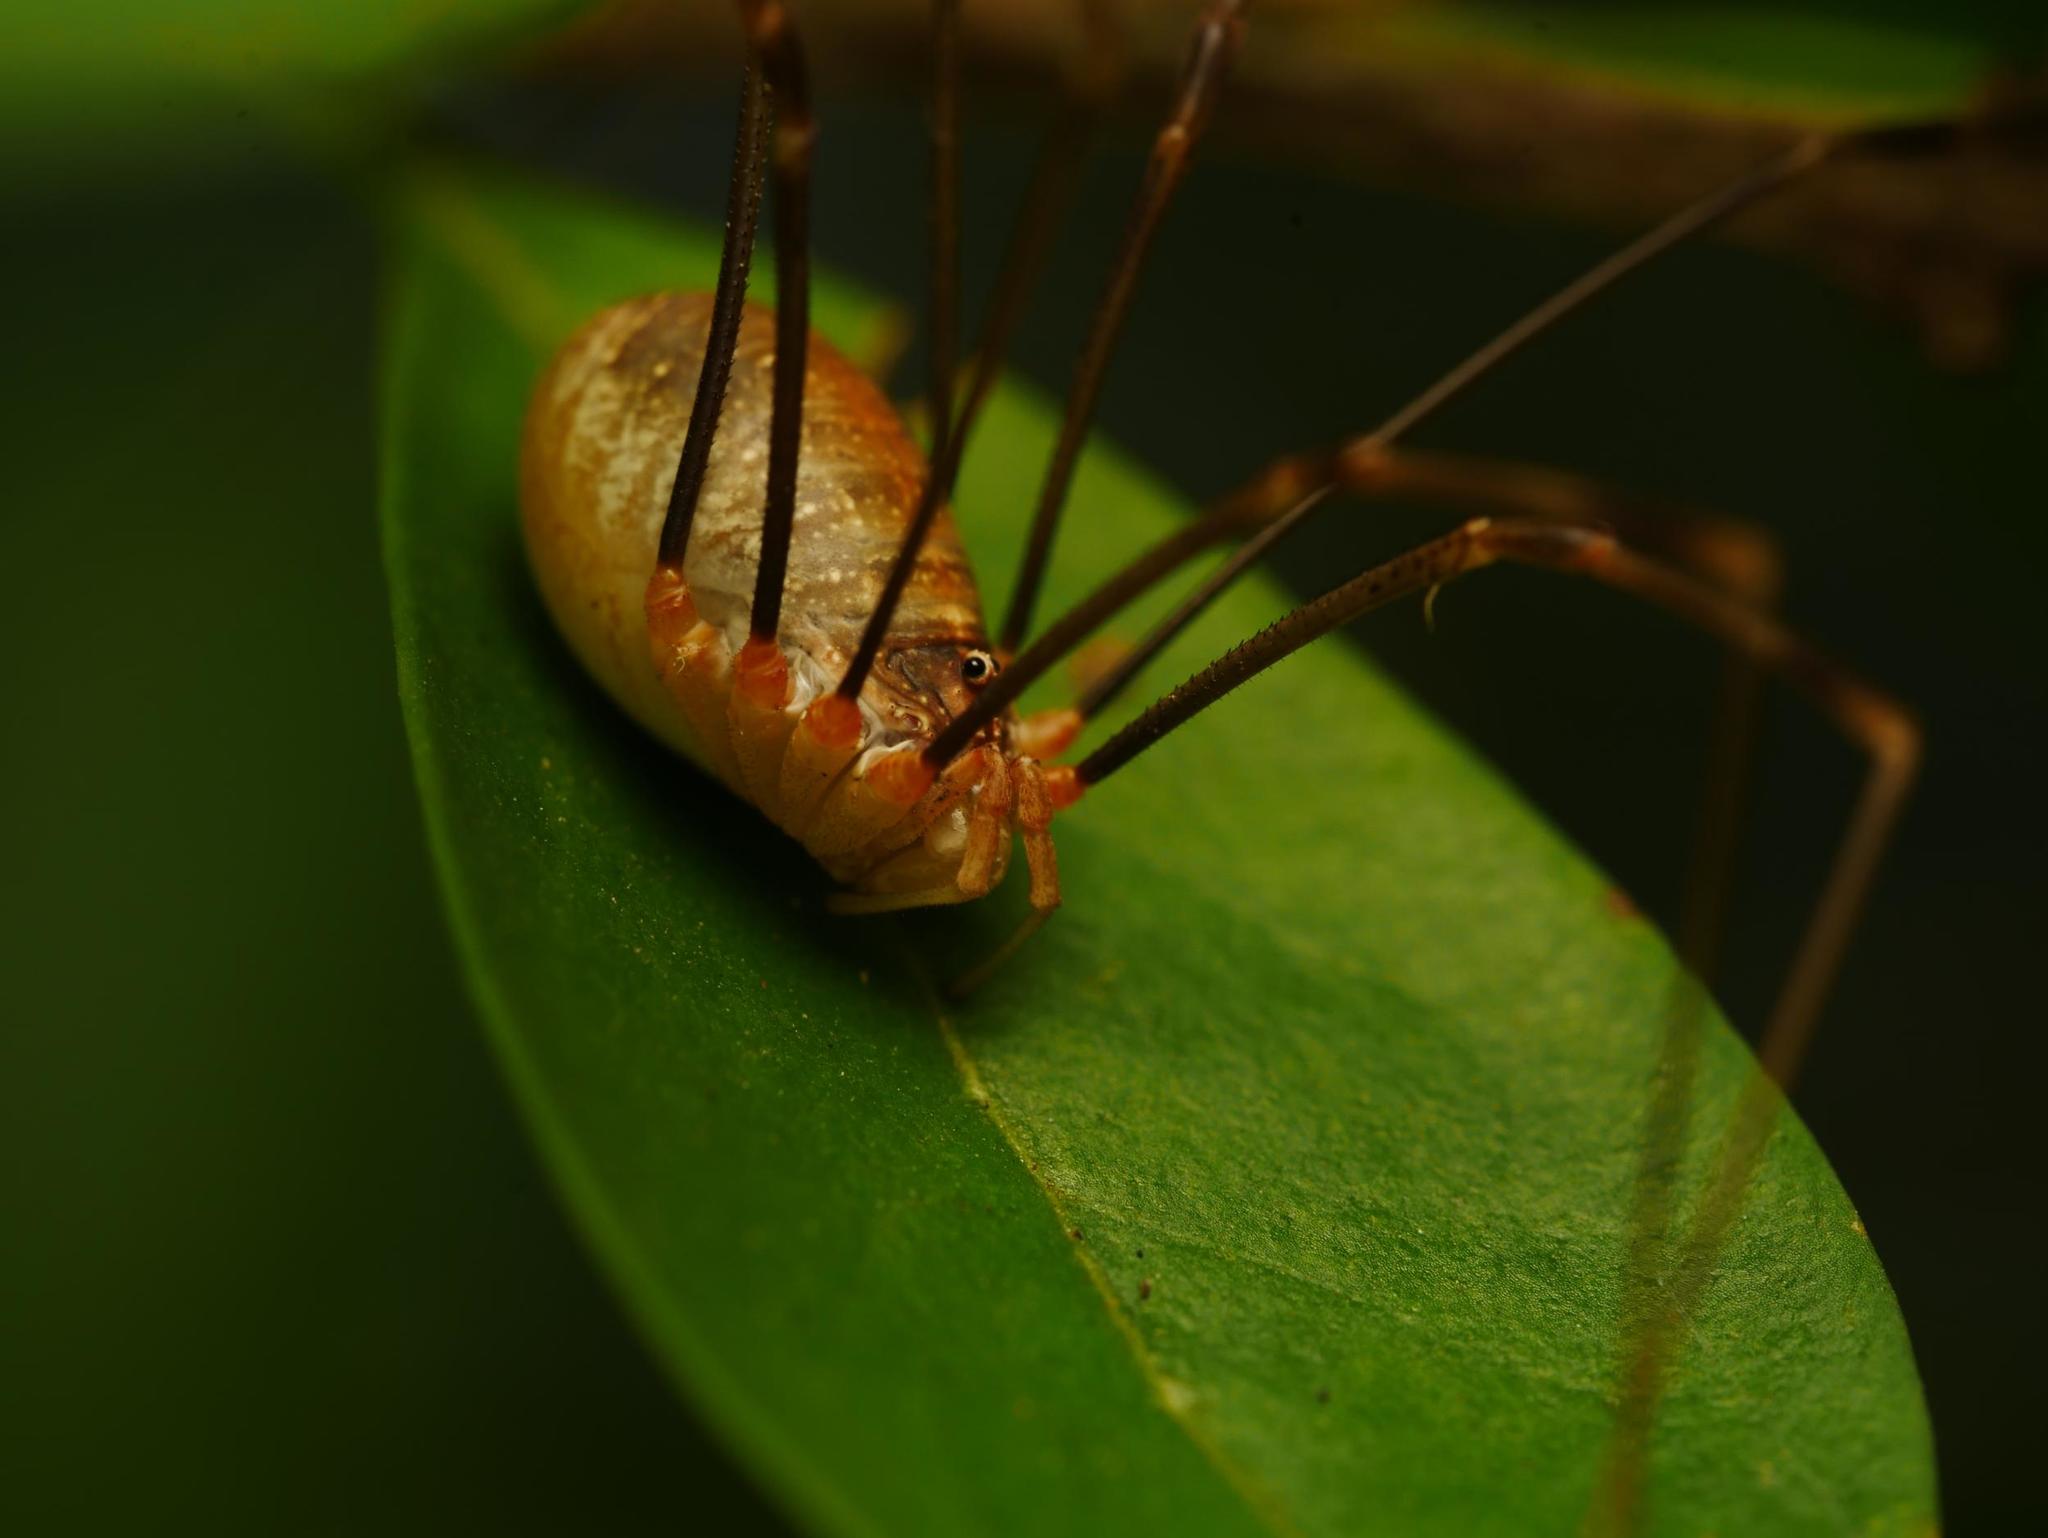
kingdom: Animalia
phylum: Arthropoda
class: Arachnida
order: Opiliones
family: Phalangiidae
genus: Opilio
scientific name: Opilio canestrinii
